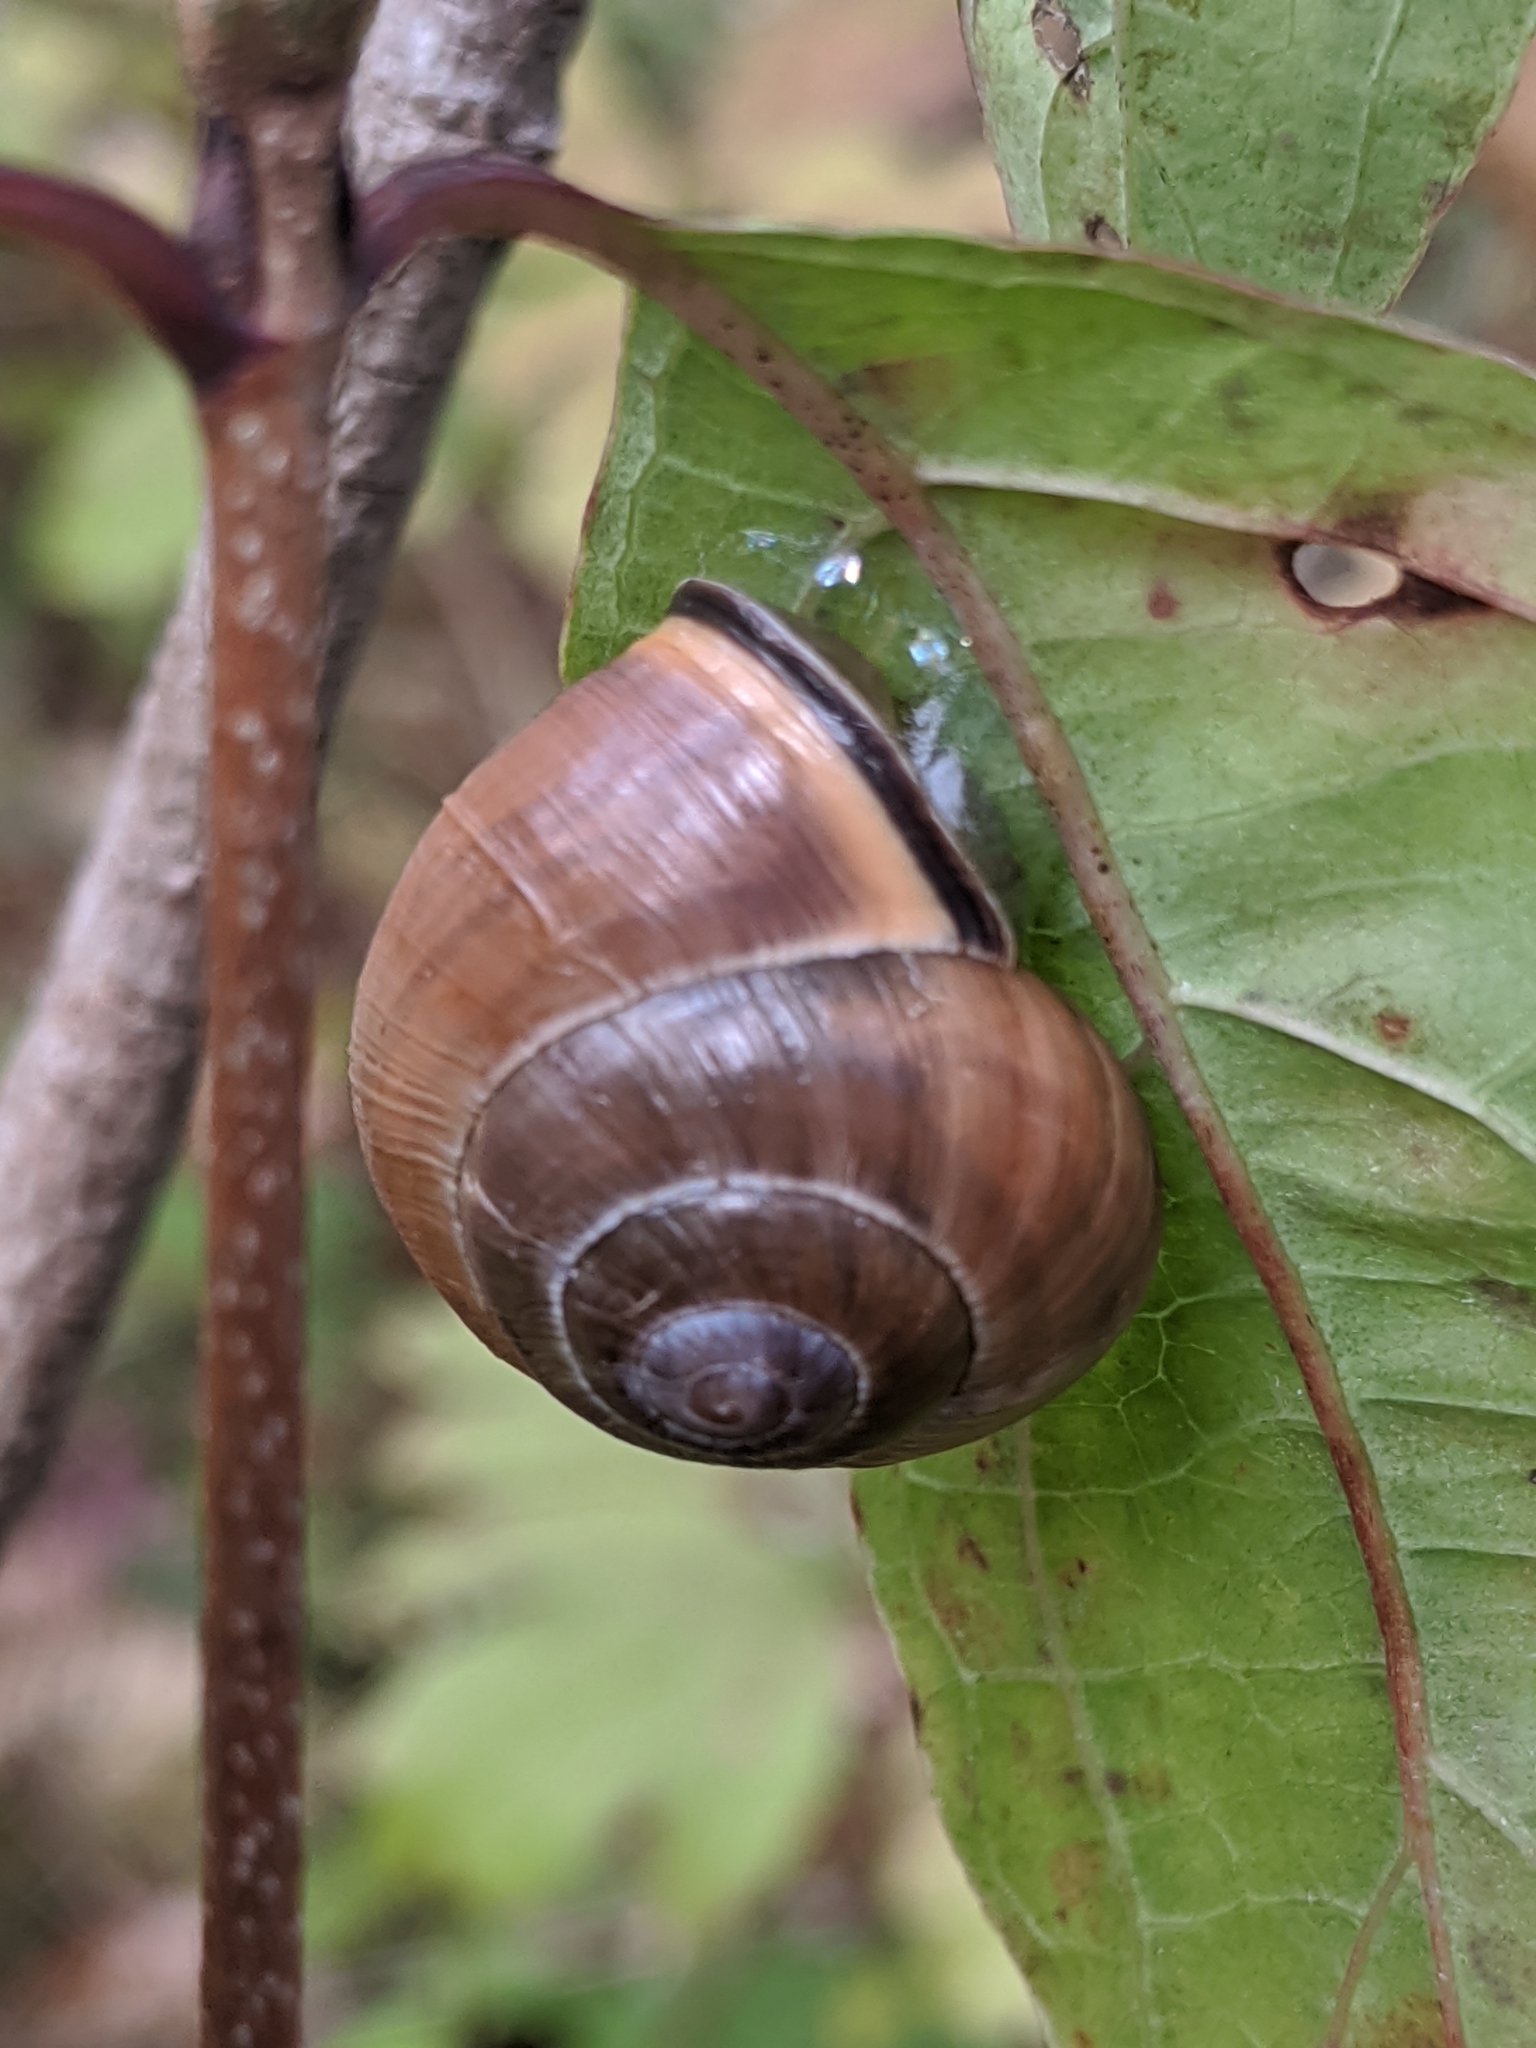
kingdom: Animalia
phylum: Mollusca
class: Gastropoda
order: Stylommatophora
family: Helicidae
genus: Cepaea
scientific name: Cepaea nemoralis
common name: Grovesnail
